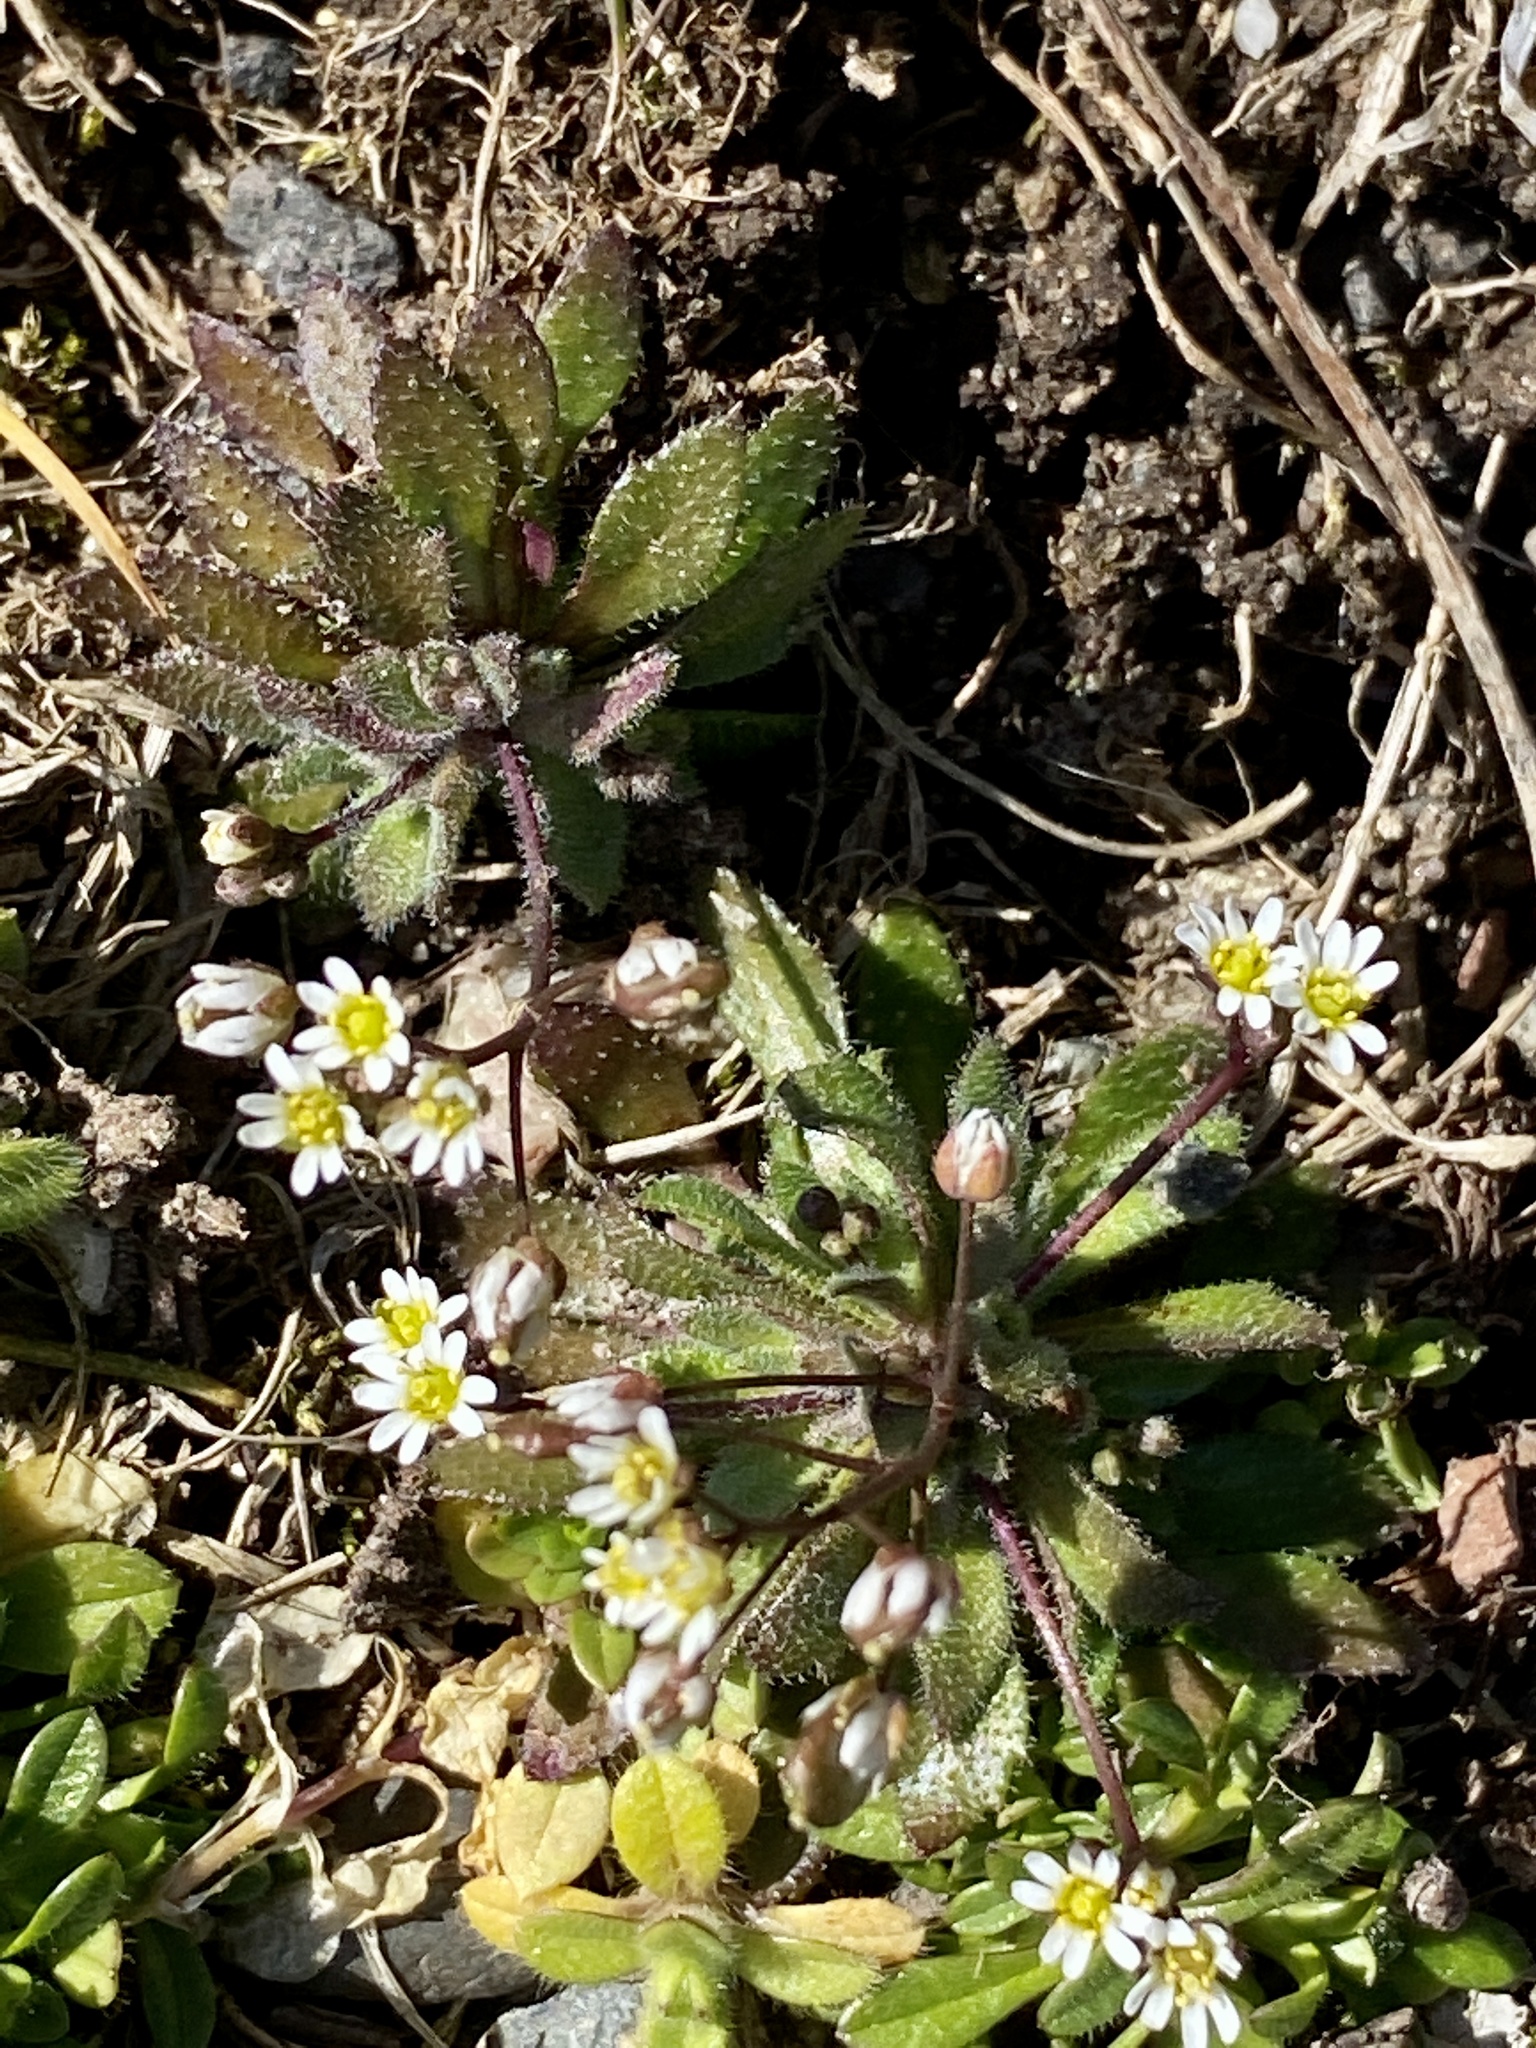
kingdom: Plantae
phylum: Tracheophyta
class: Magnoliopsida
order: Brassicales
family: Brassicaceae
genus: Draba
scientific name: Draba verna
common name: Spring draba
